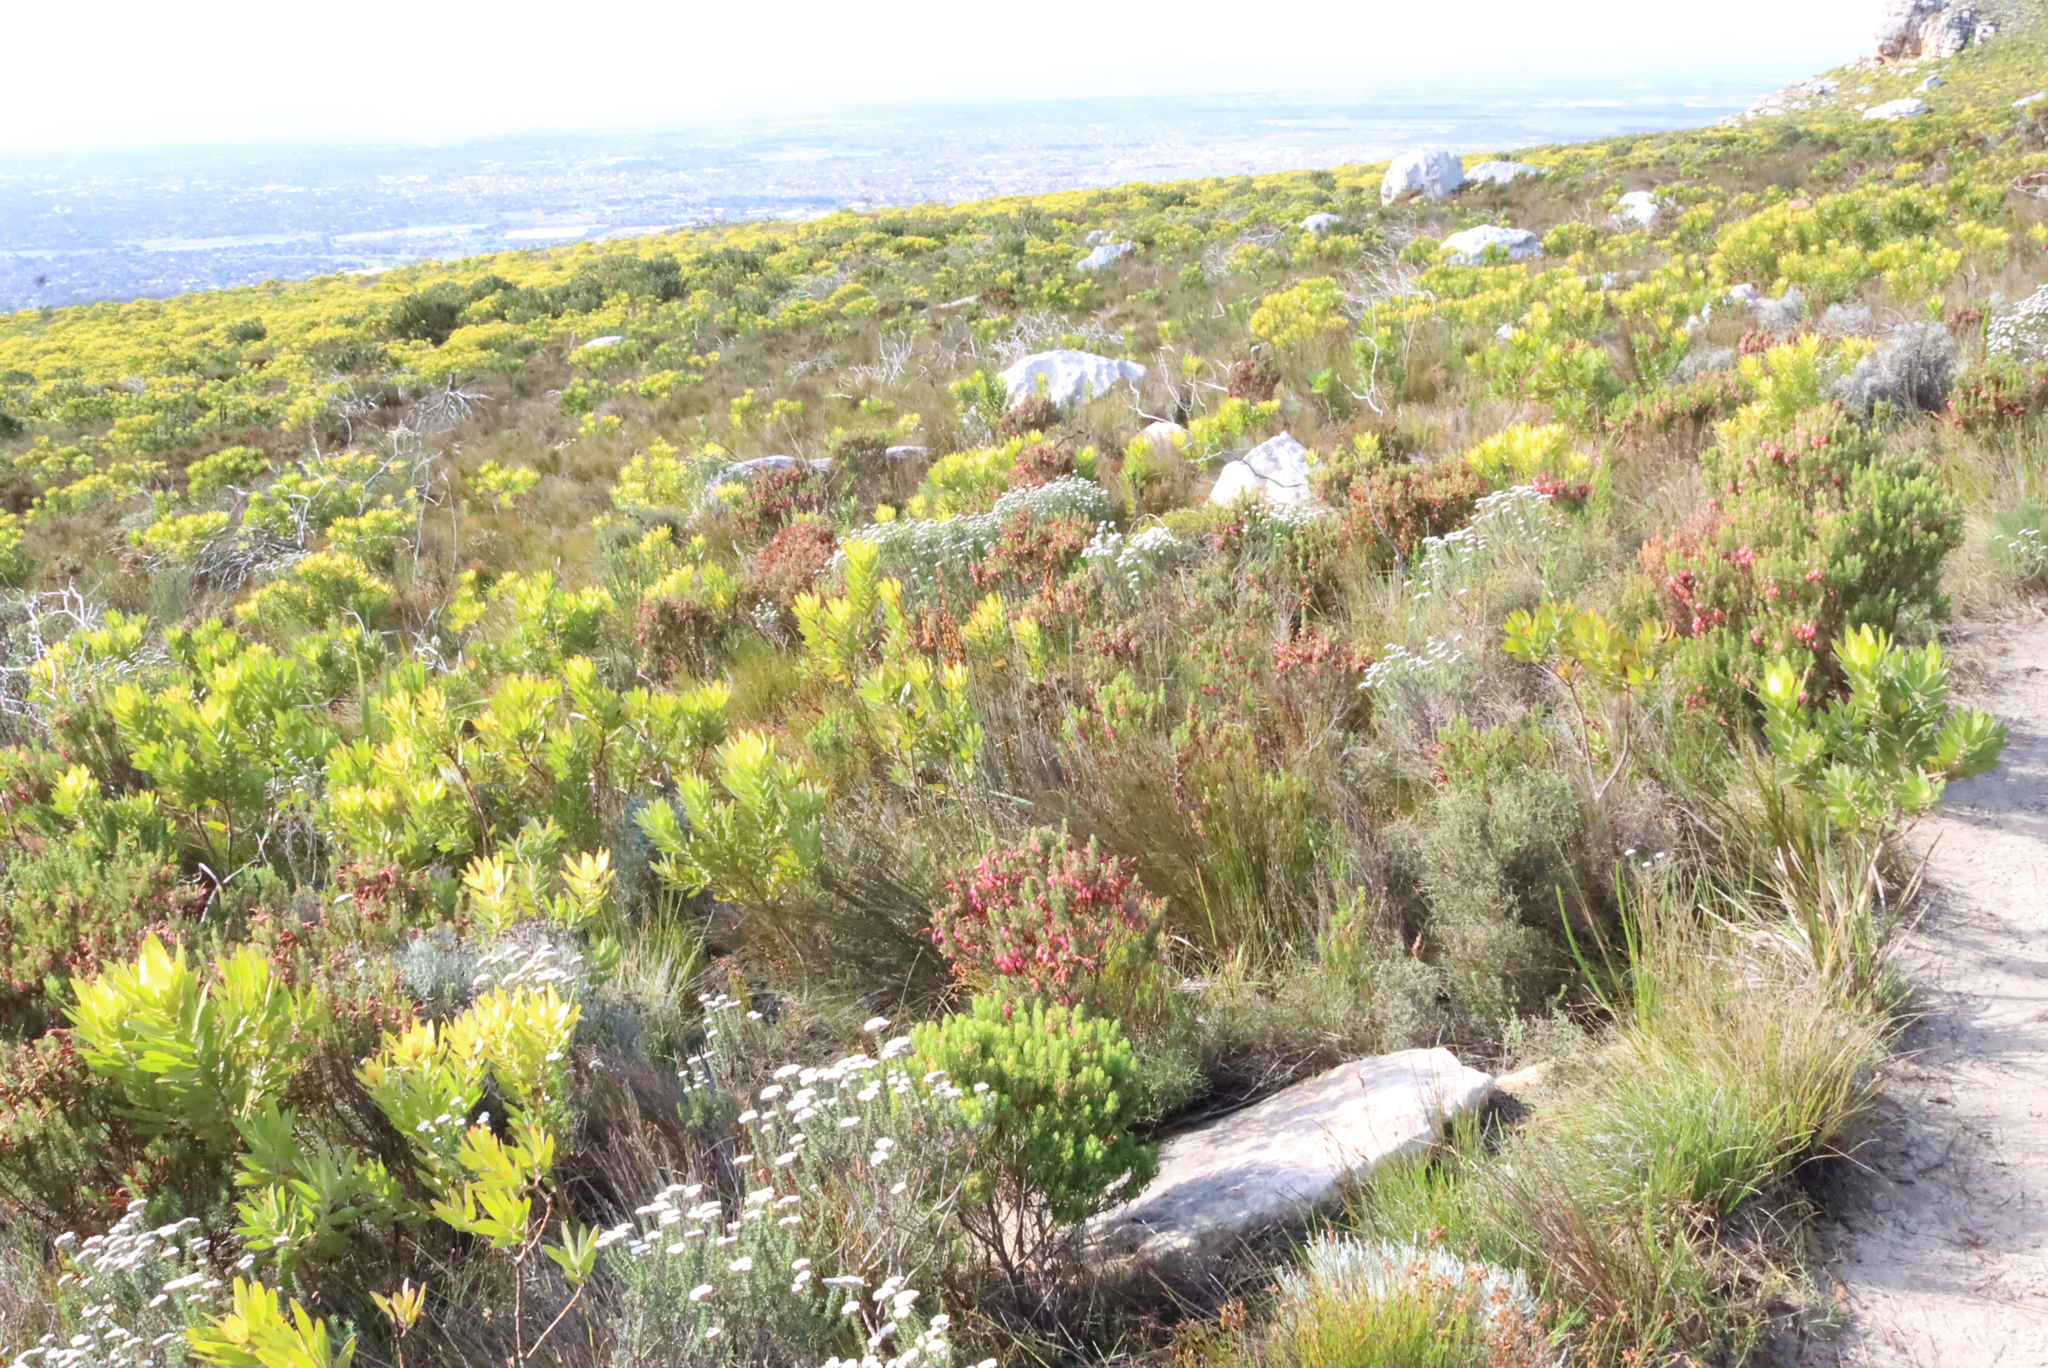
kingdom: Plantae
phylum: Tracheophyta
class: Magnoliopsida
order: Ericales
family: Ericaceae
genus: Erica
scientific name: Erica plukenetii
